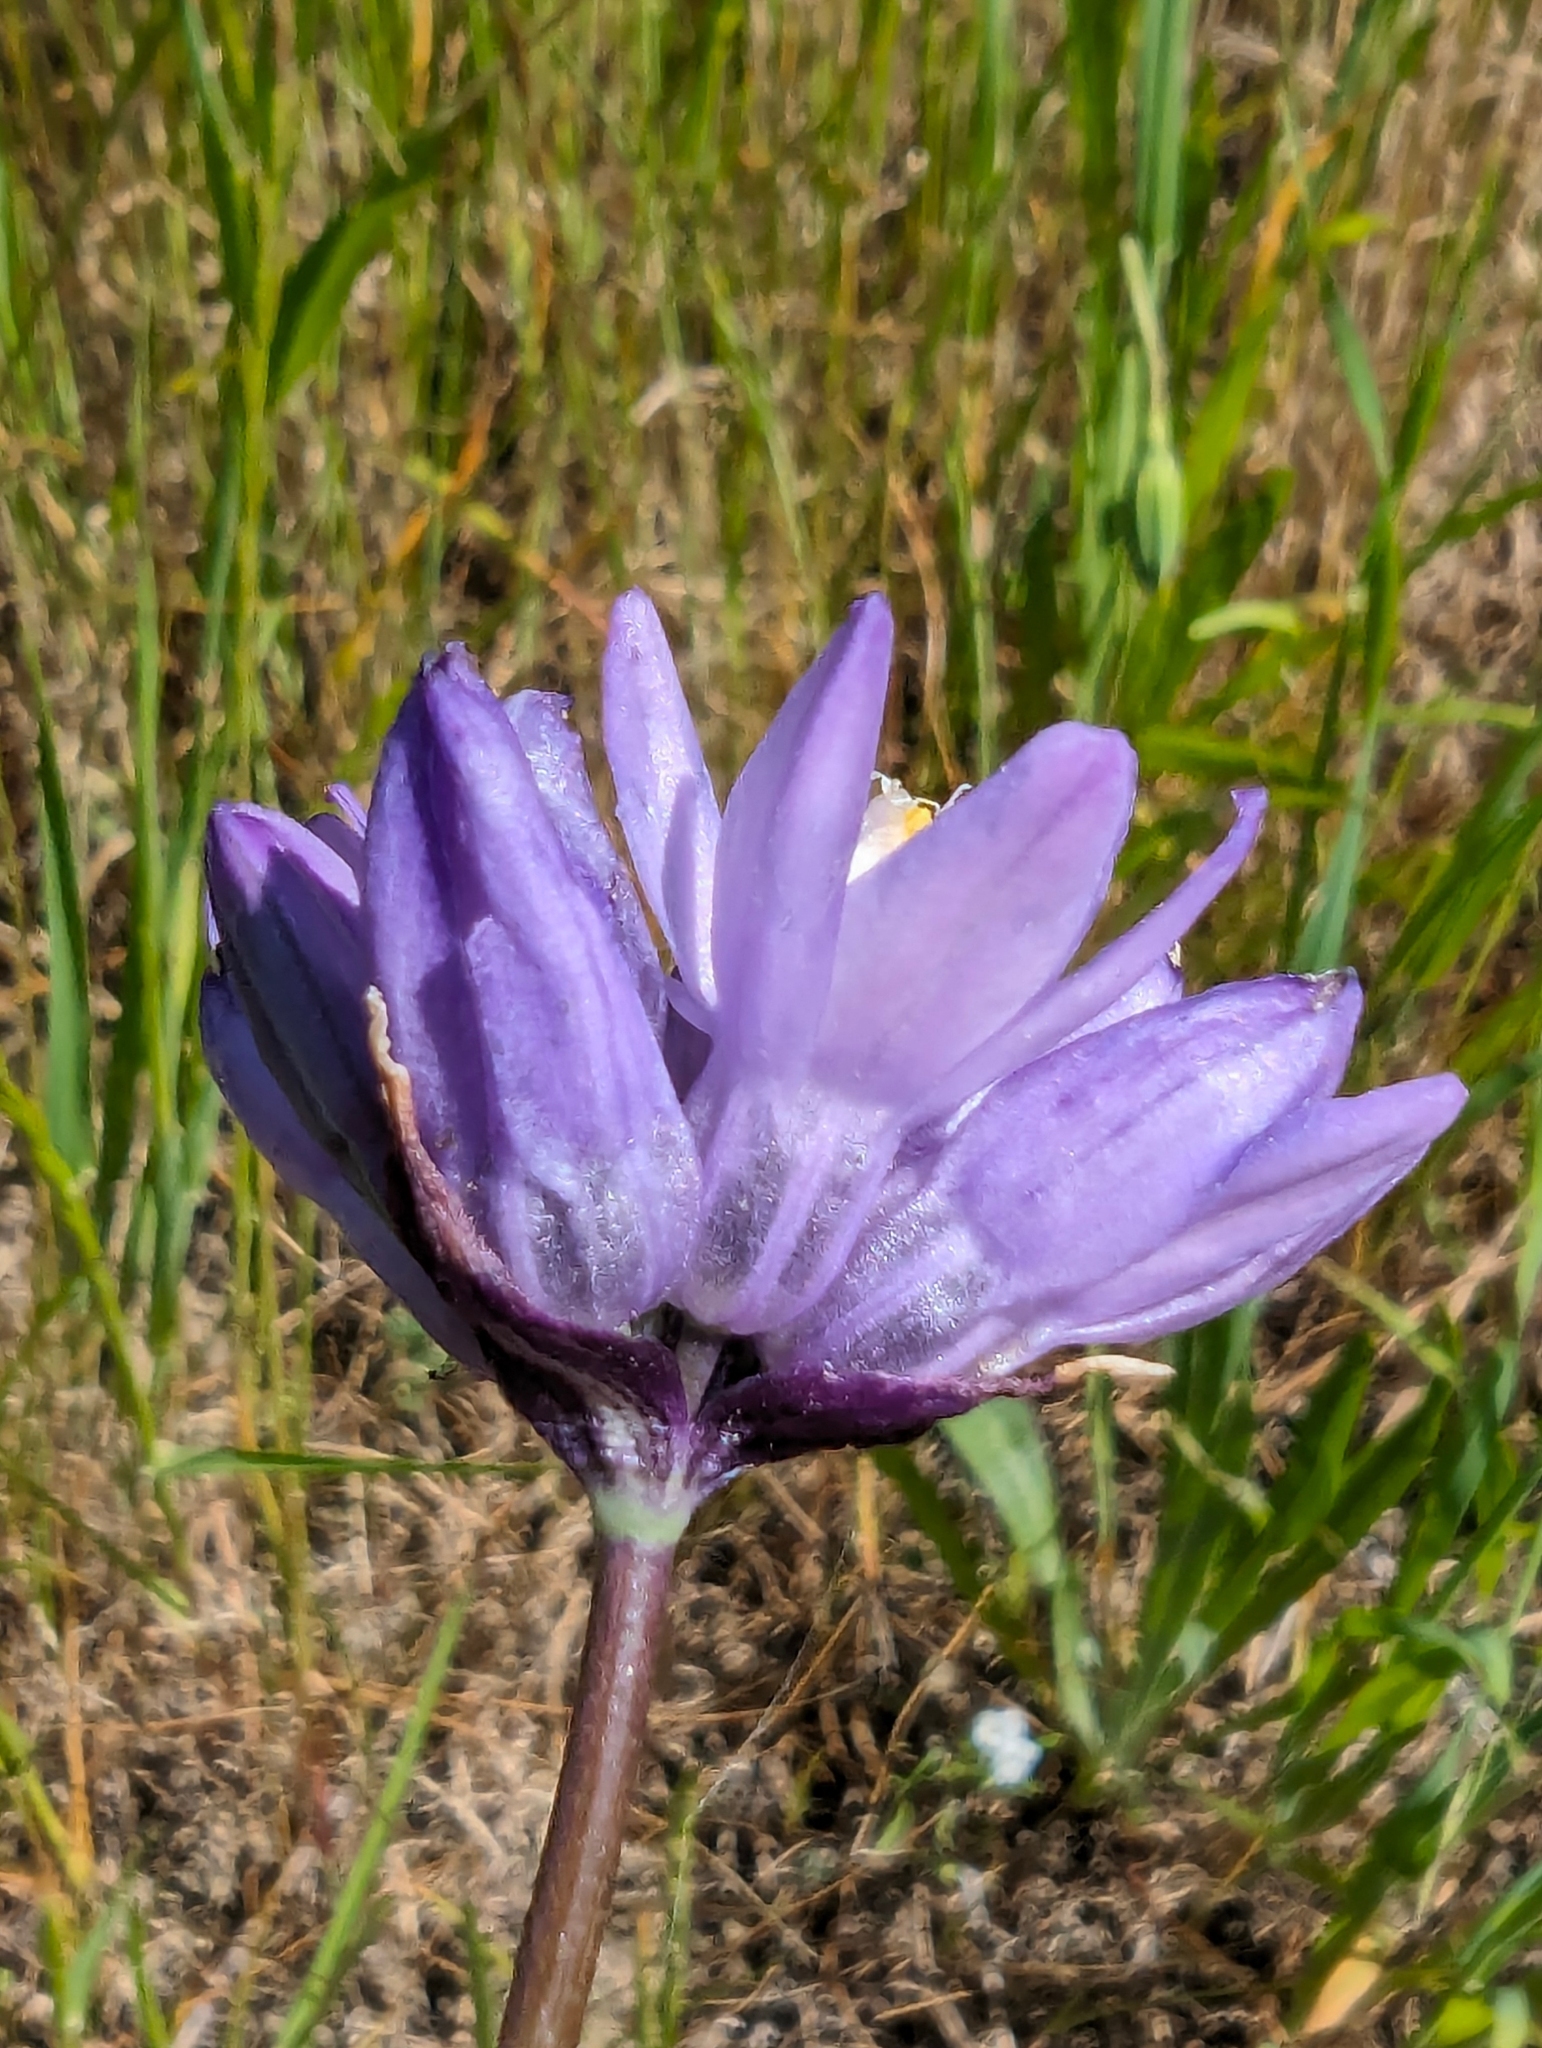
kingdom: Plantae
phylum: Tracheophyta
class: Liliopsida
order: Asparagales
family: Asparagaceae
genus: Dipterostemon
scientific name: Dipterostemon capitatus
